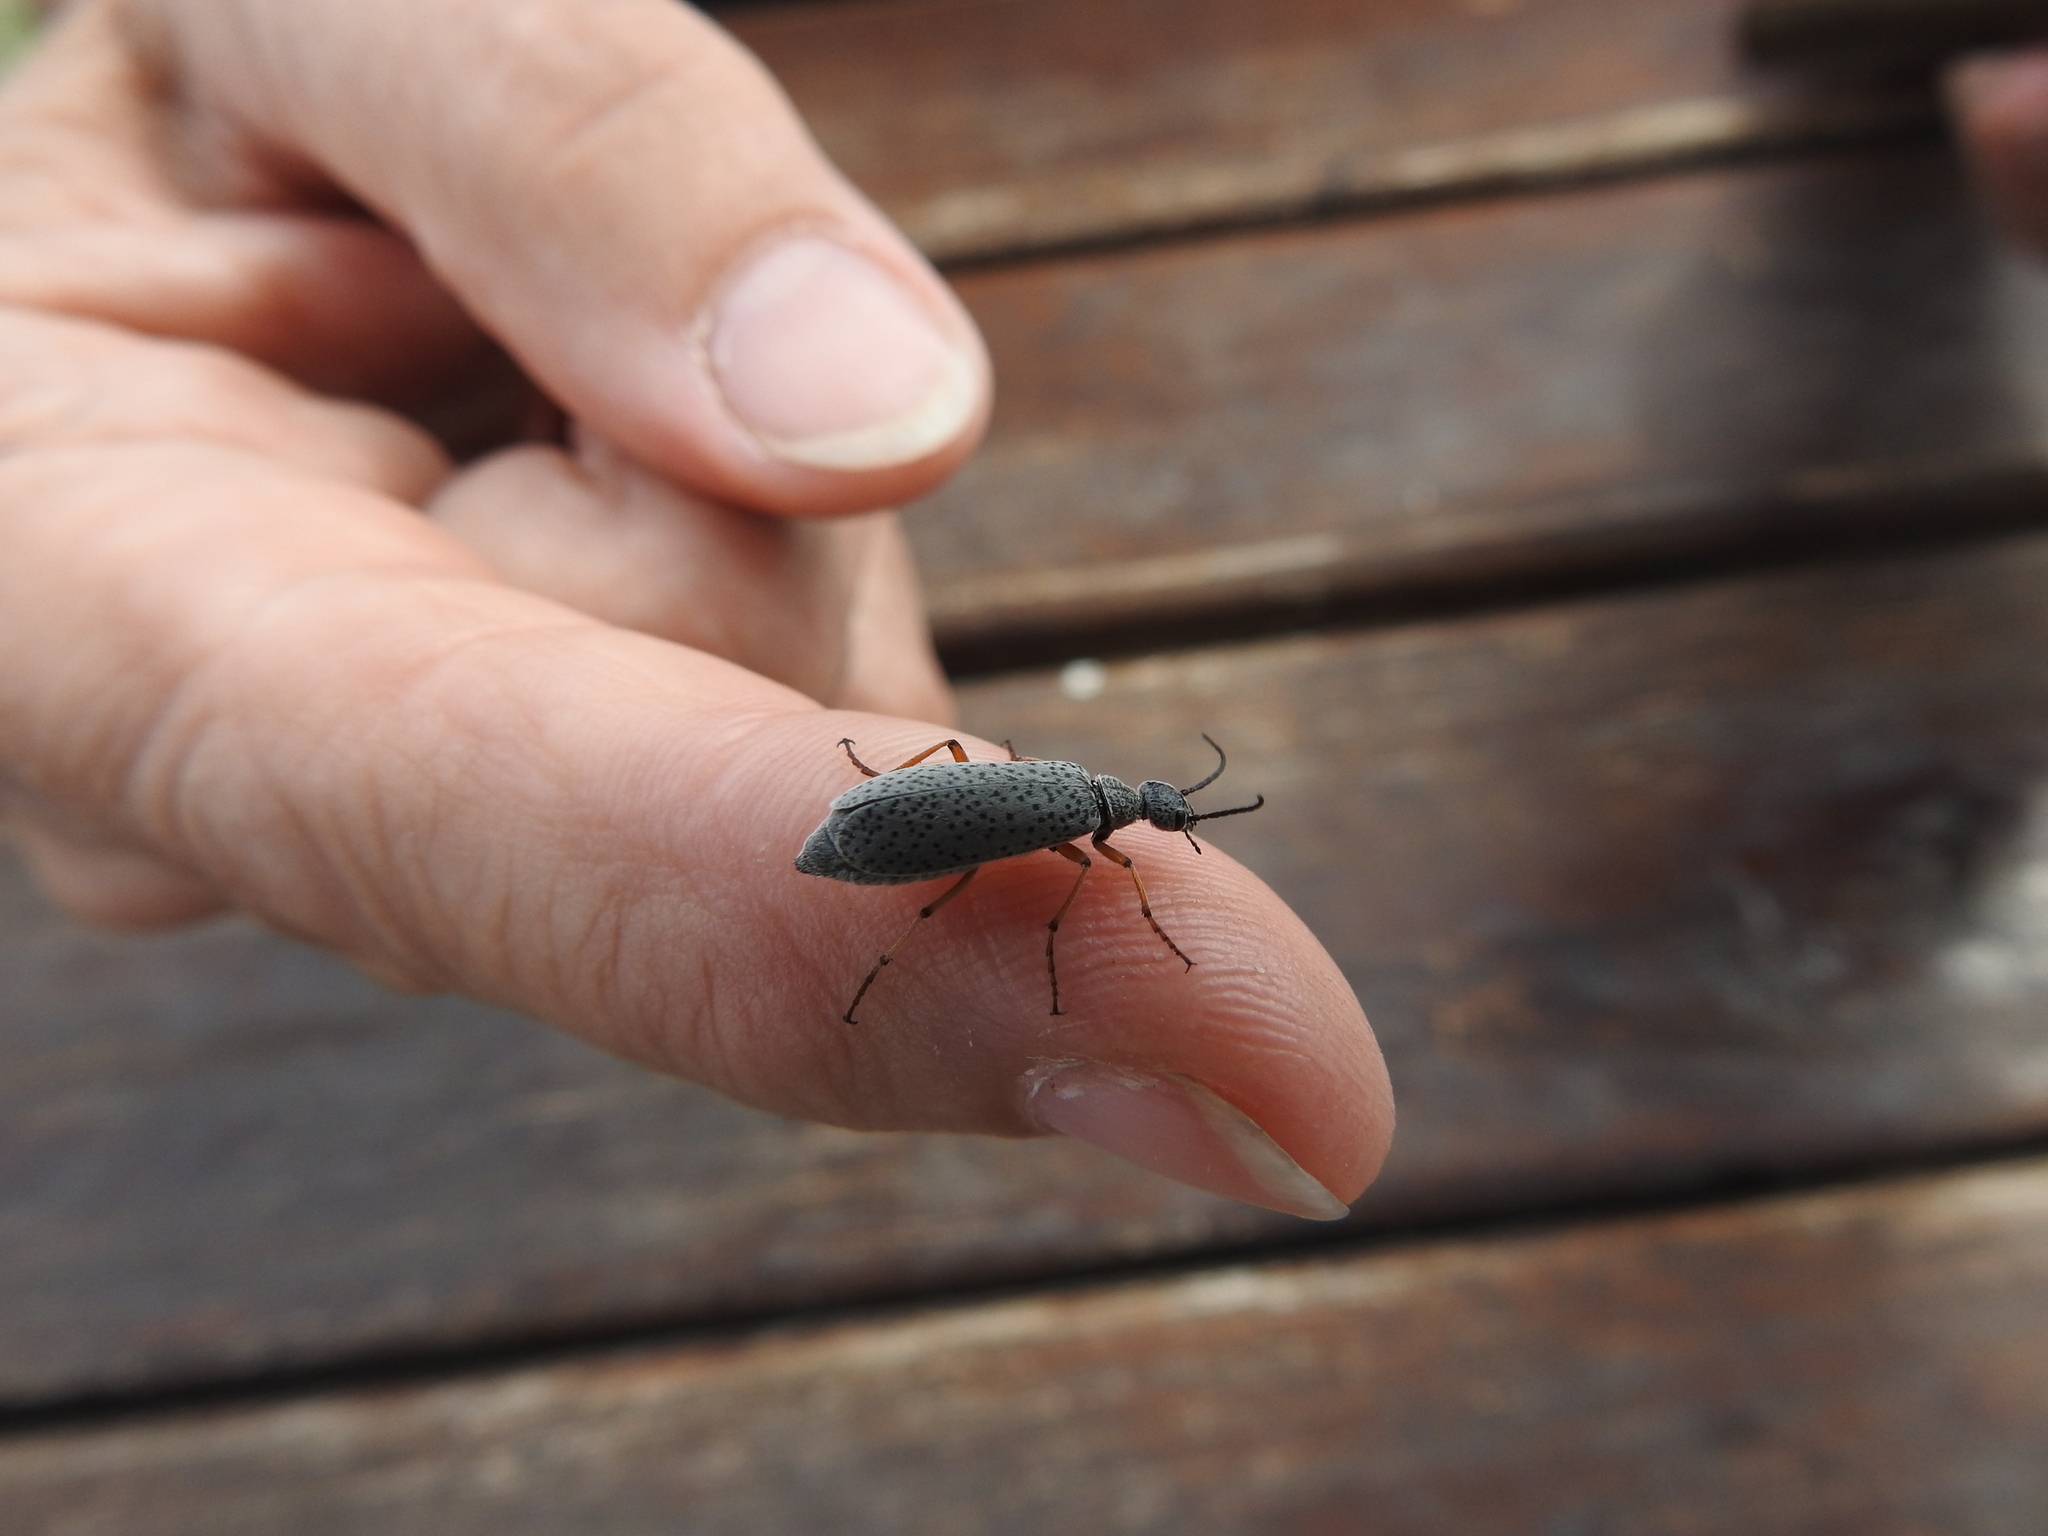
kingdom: Animalia
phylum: Arthropoda
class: Insecta
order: Coleoptera
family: Meloidae
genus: Epicauta
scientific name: Epicauta
